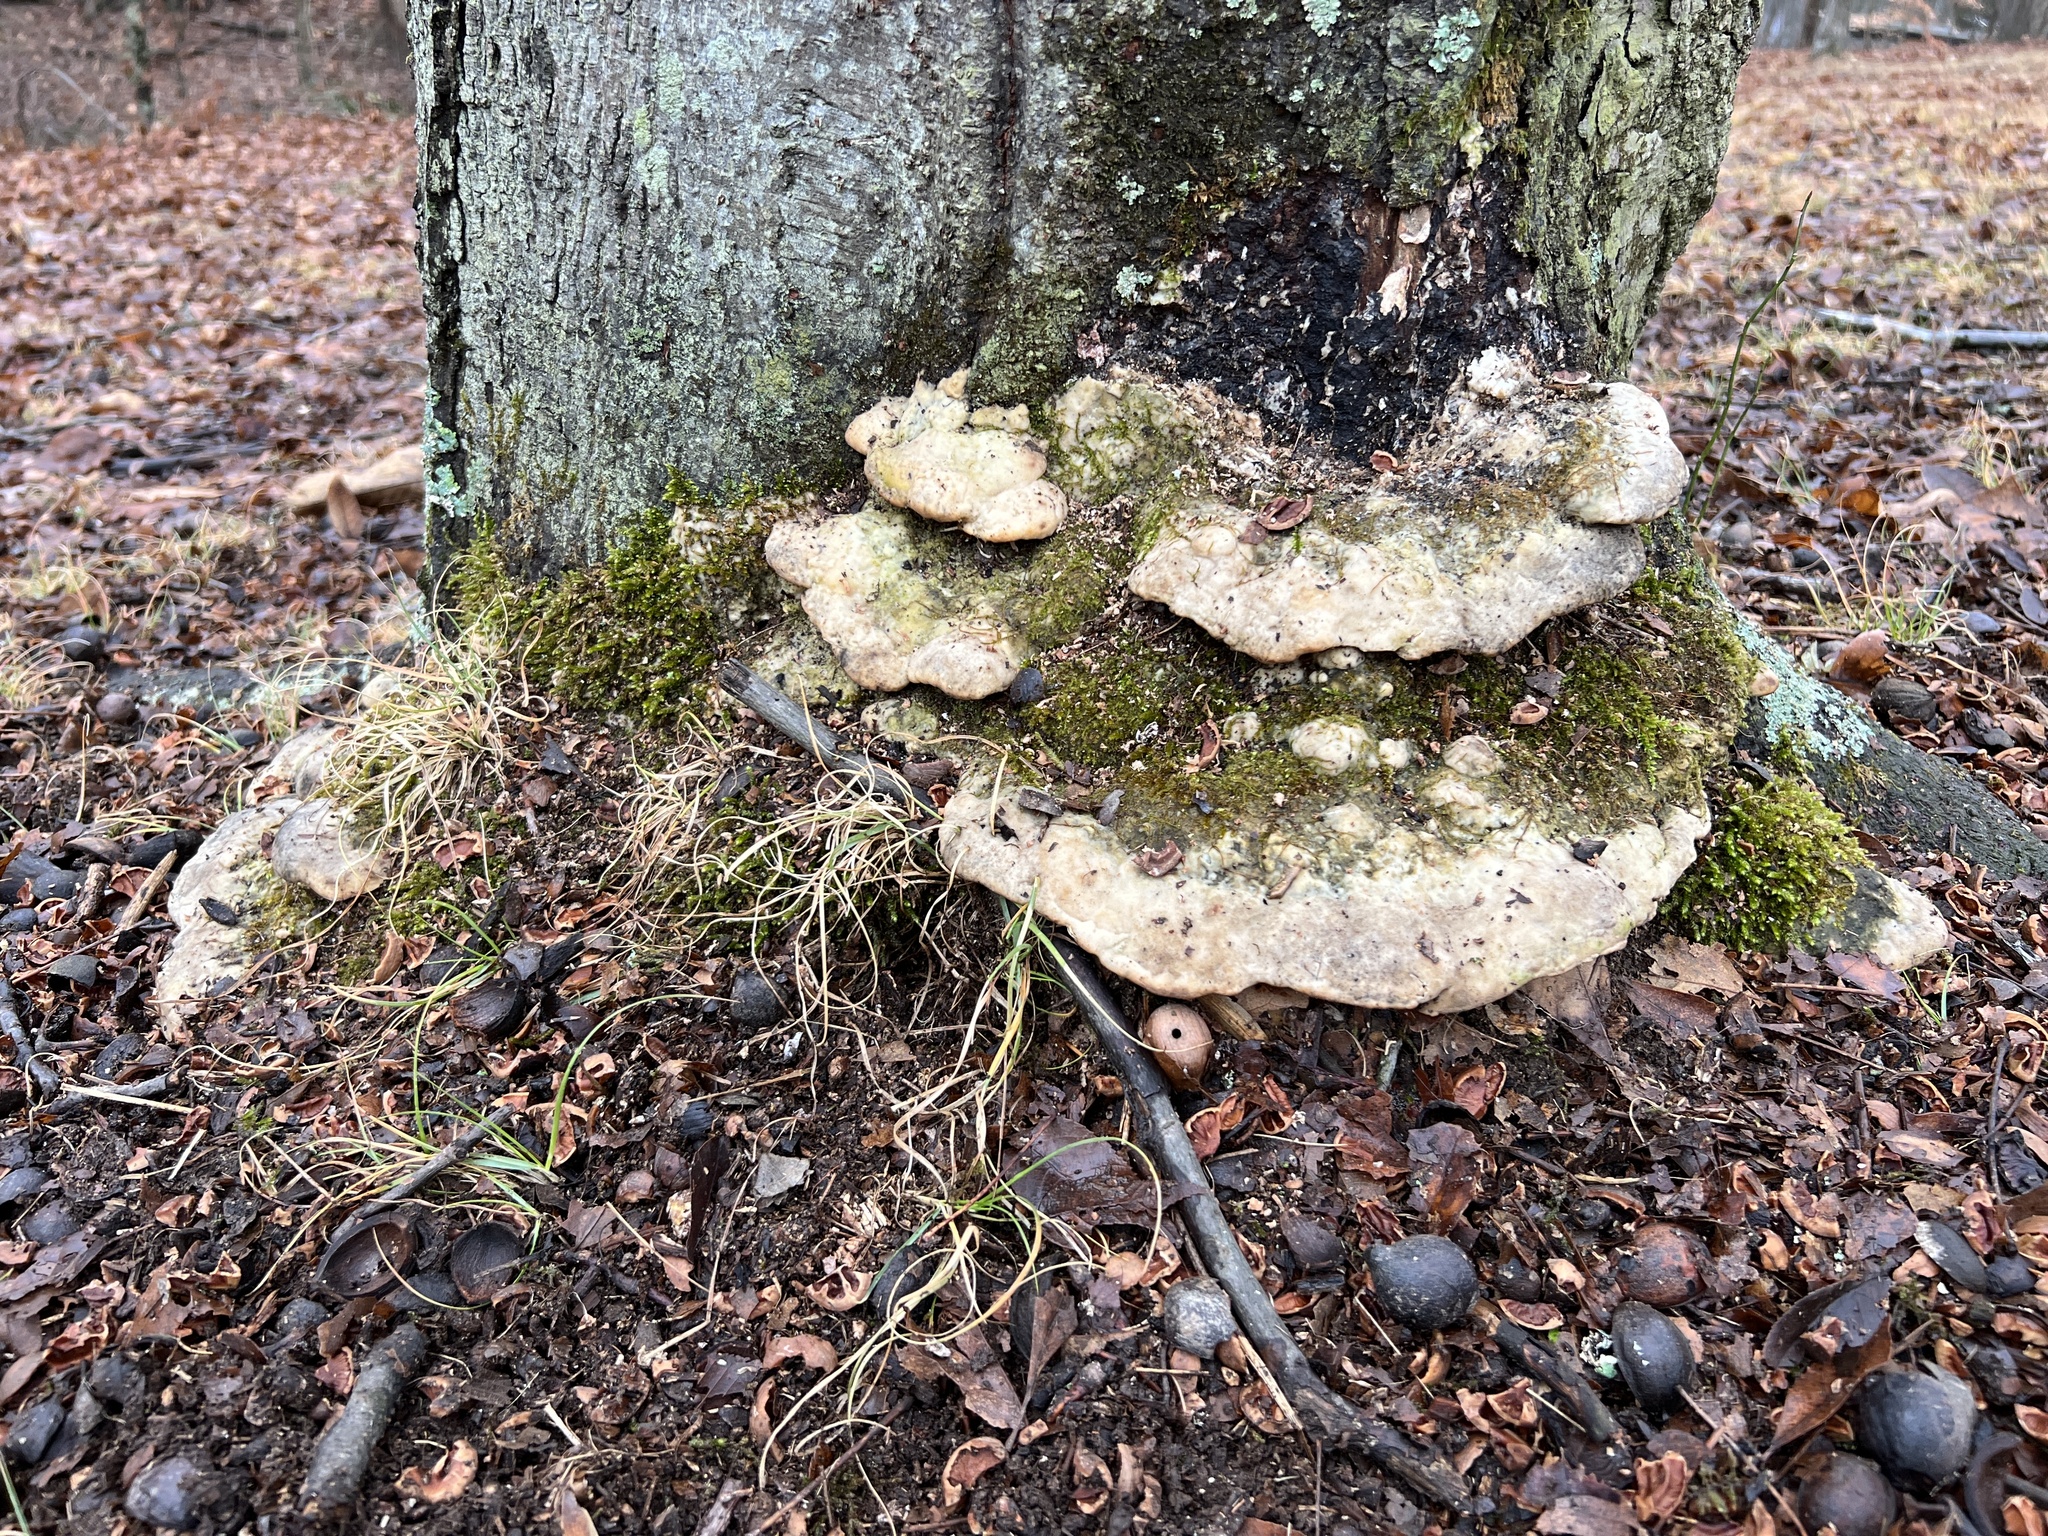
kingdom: Fungi
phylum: Basidiomycota
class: Agaricomycetes
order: Hymenochaetales
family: Oxyporaceae
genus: Oxyporus
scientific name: Oxyporus populinus
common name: Poplar bracket
